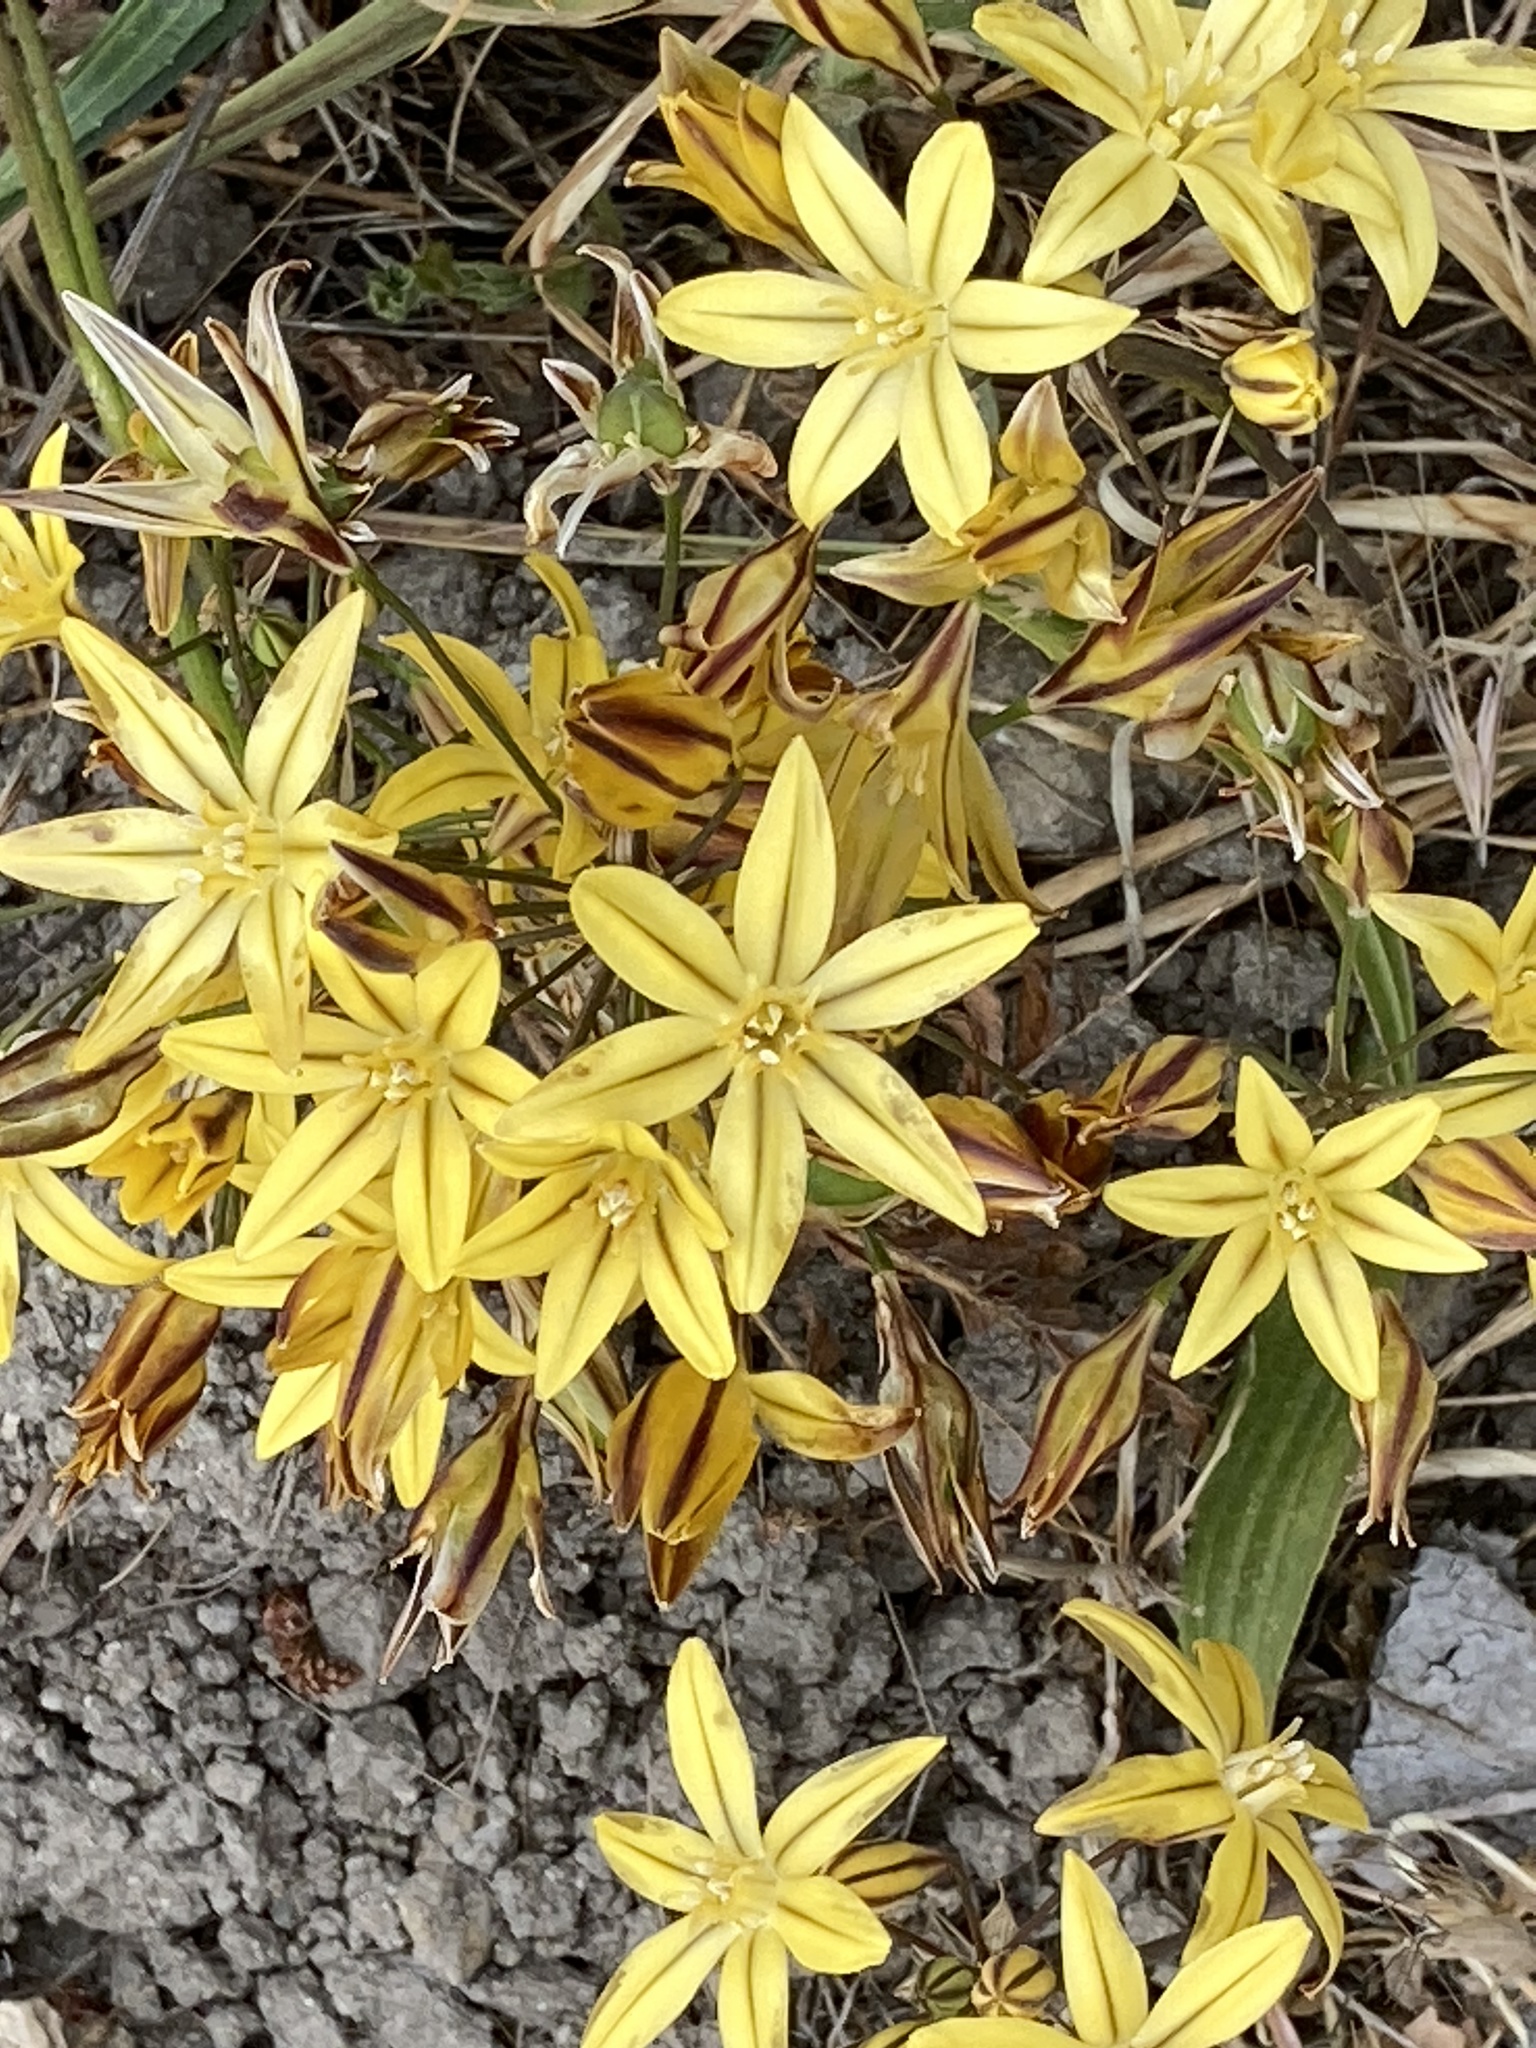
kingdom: Plantae
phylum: Tracheophyta
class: Liliopsida
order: Asparagales
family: Asparagaceae
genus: Triteleia
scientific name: Triteleia ixioides
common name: Yellow-brodiaea
